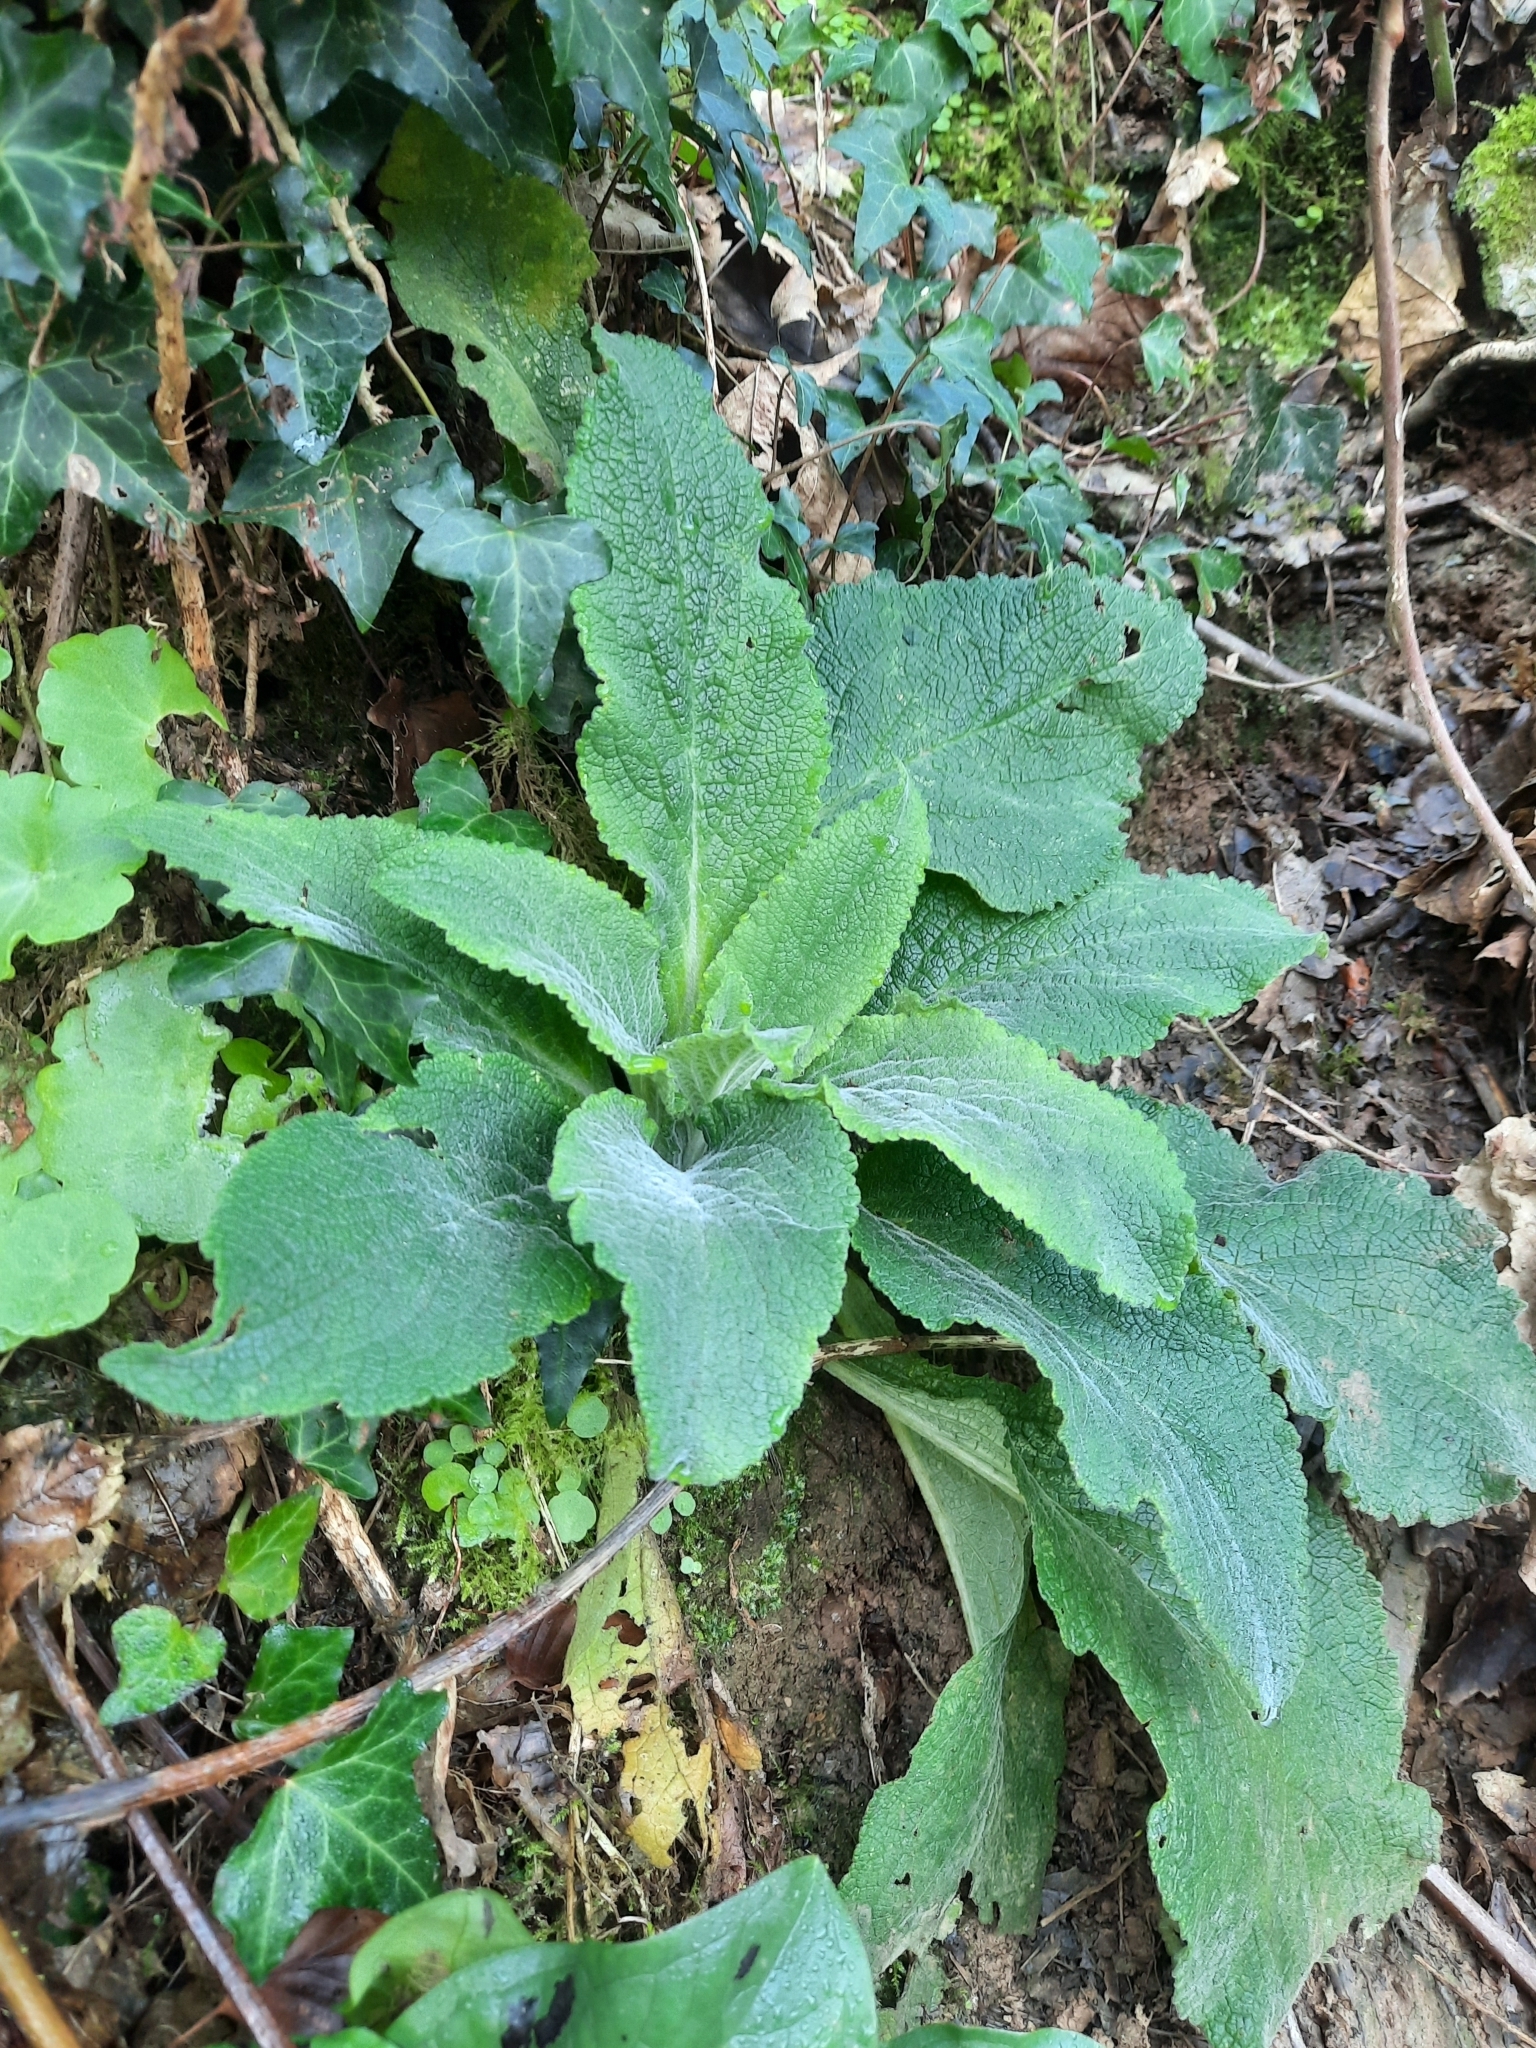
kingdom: Plantae
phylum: Tracheophyta
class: Magnoliopsida
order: Lamiales
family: Plantaginaceae
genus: Digitalis
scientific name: Digitalis purpurea
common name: Foxglove
